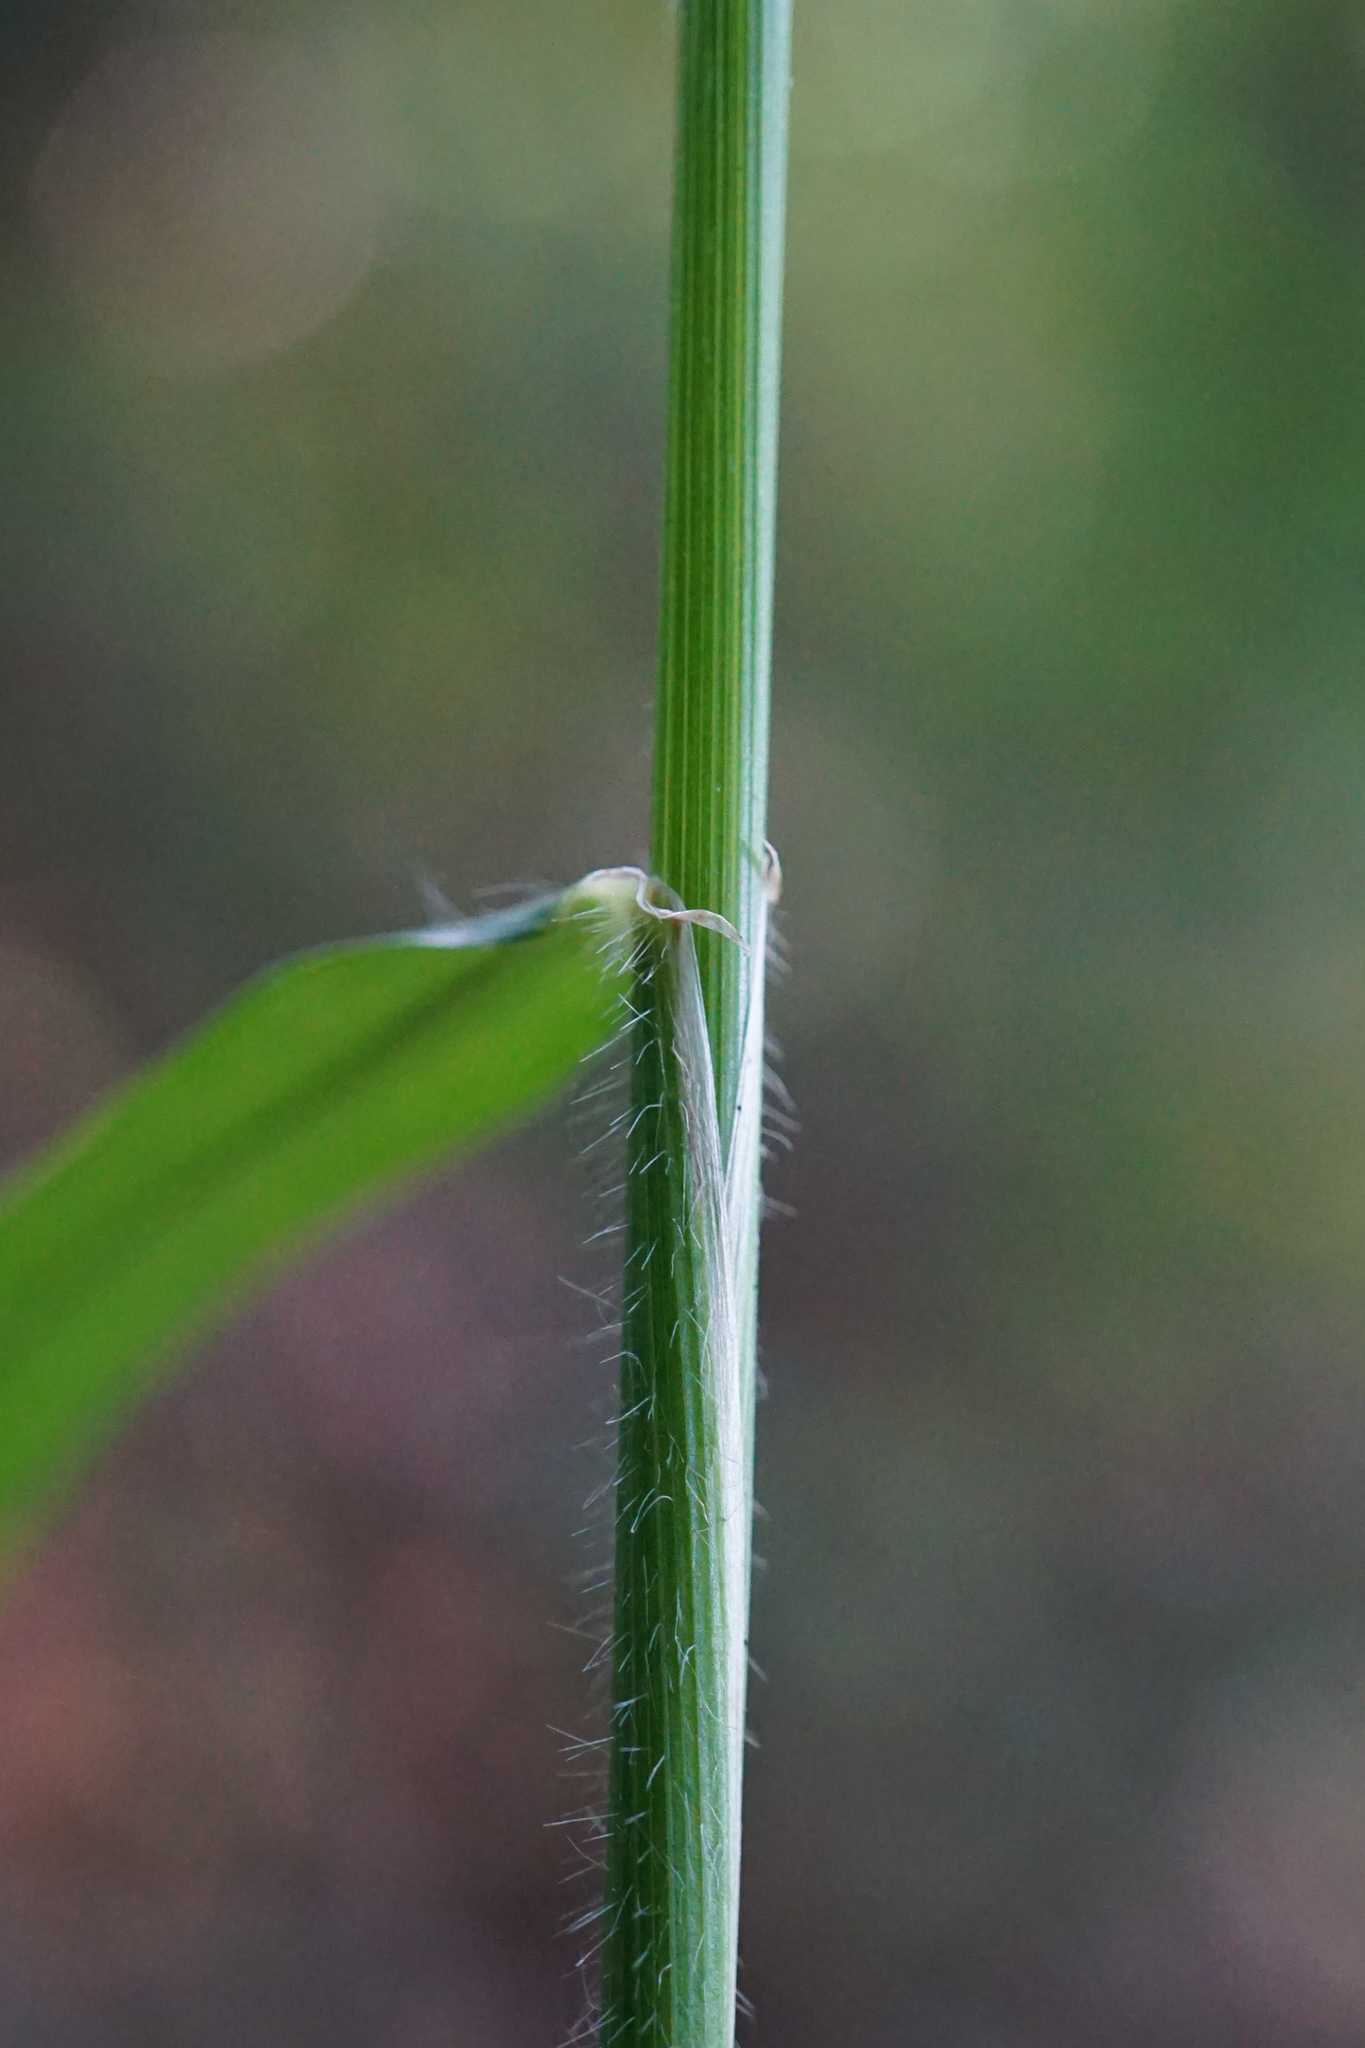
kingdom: Plantae
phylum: Tracheophyta
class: Liliopsida
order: Poales
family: Poaceae
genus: Hordelymus
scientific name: Hordelymus europaeus
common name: Wood-barley
